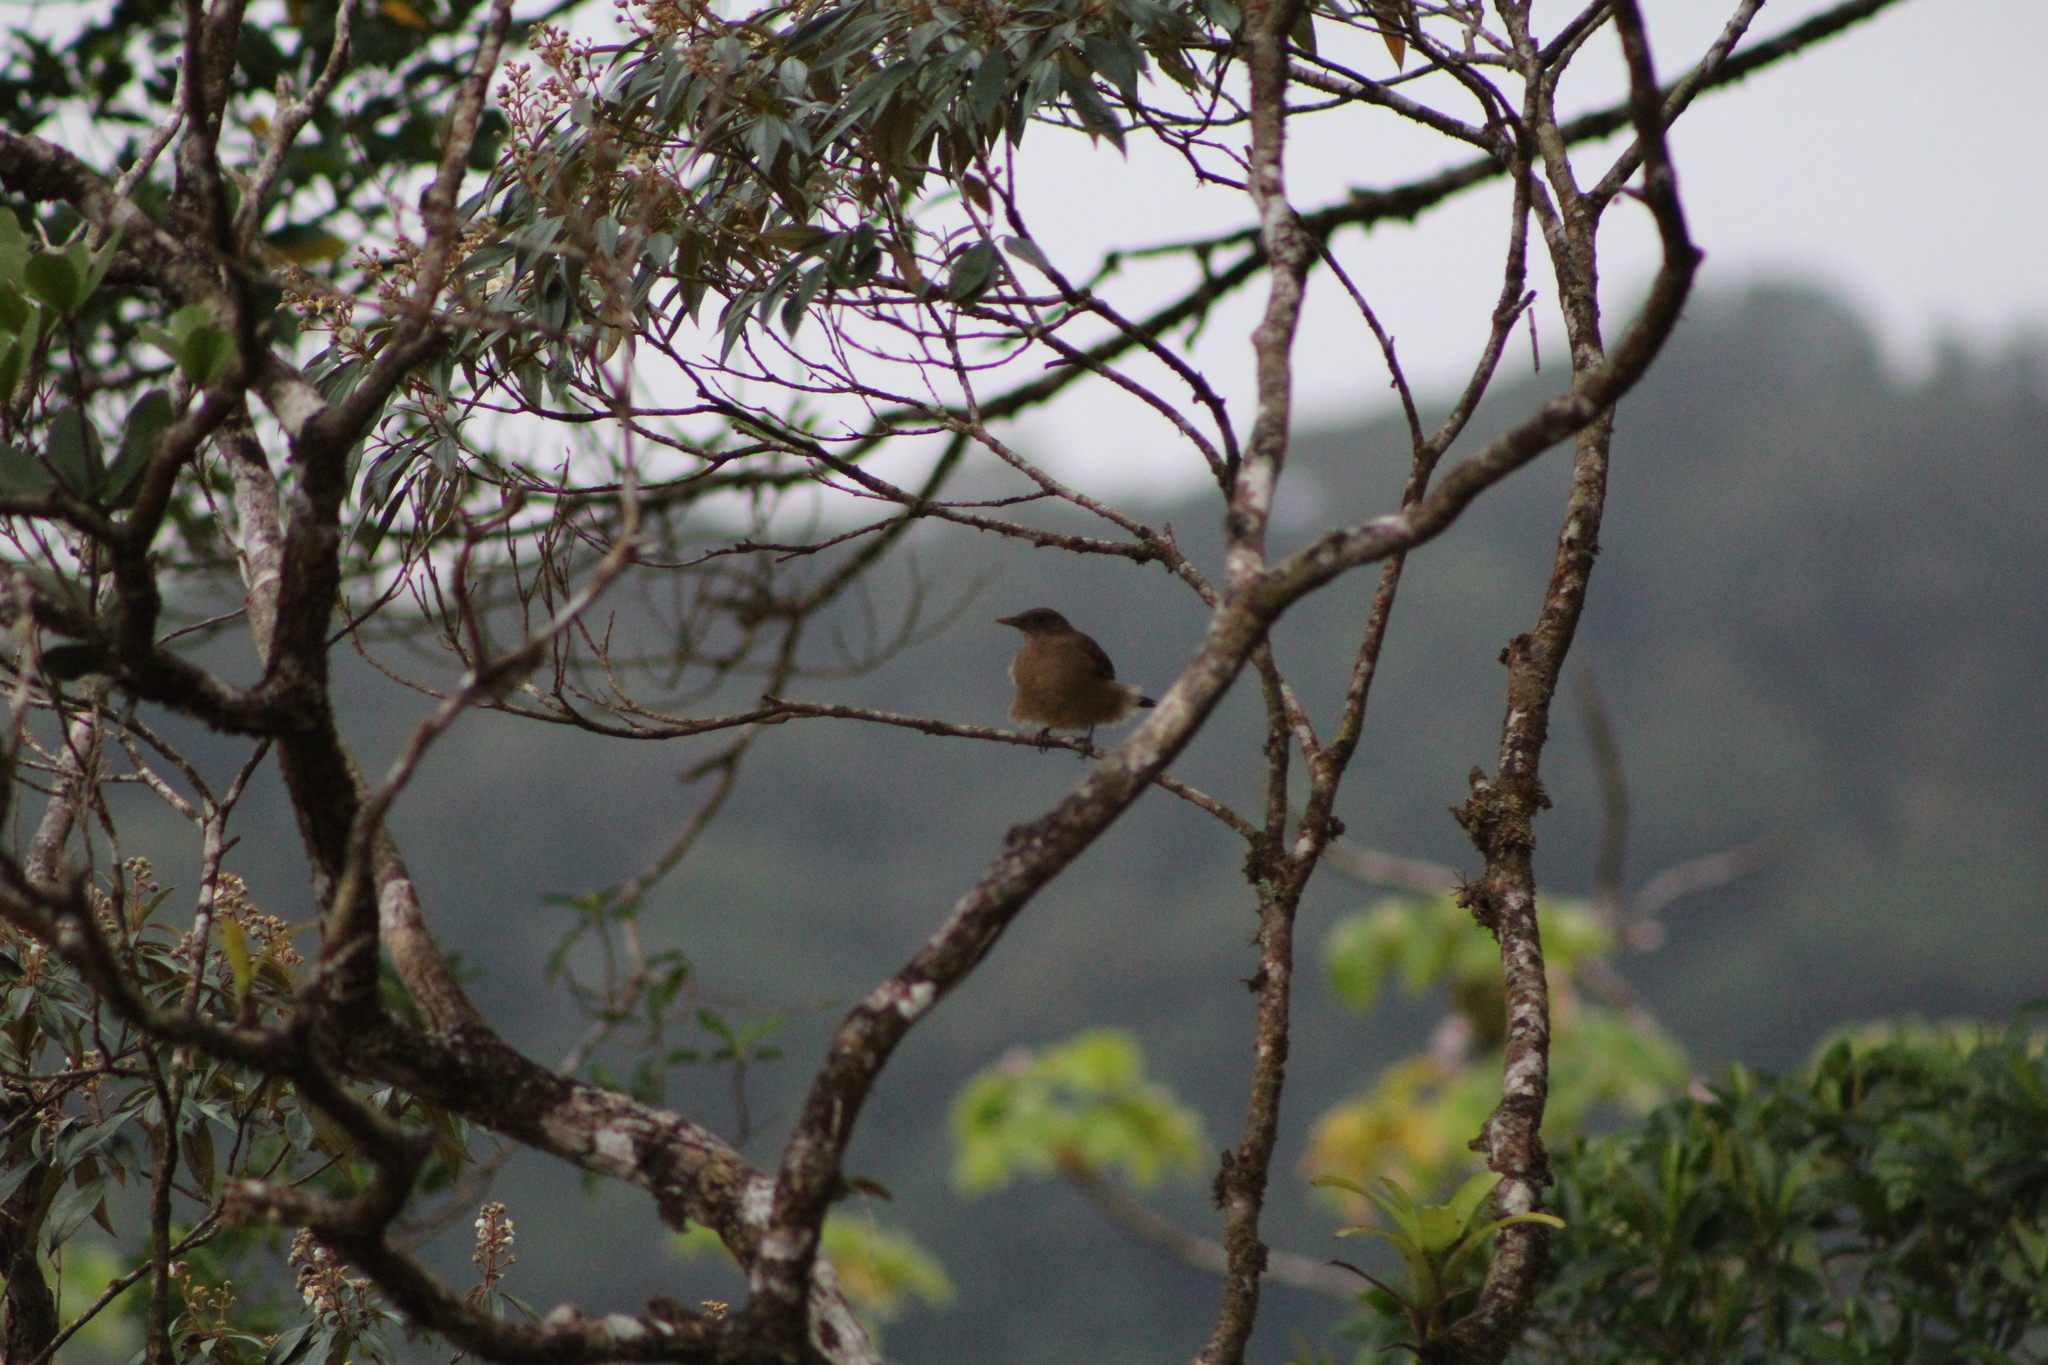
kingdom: Animalia
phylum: Chordata
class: Aves
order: Passeriformes
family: Turdidae
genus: Turdus
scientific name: Turdus grayi
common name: Clay-colored thrush
